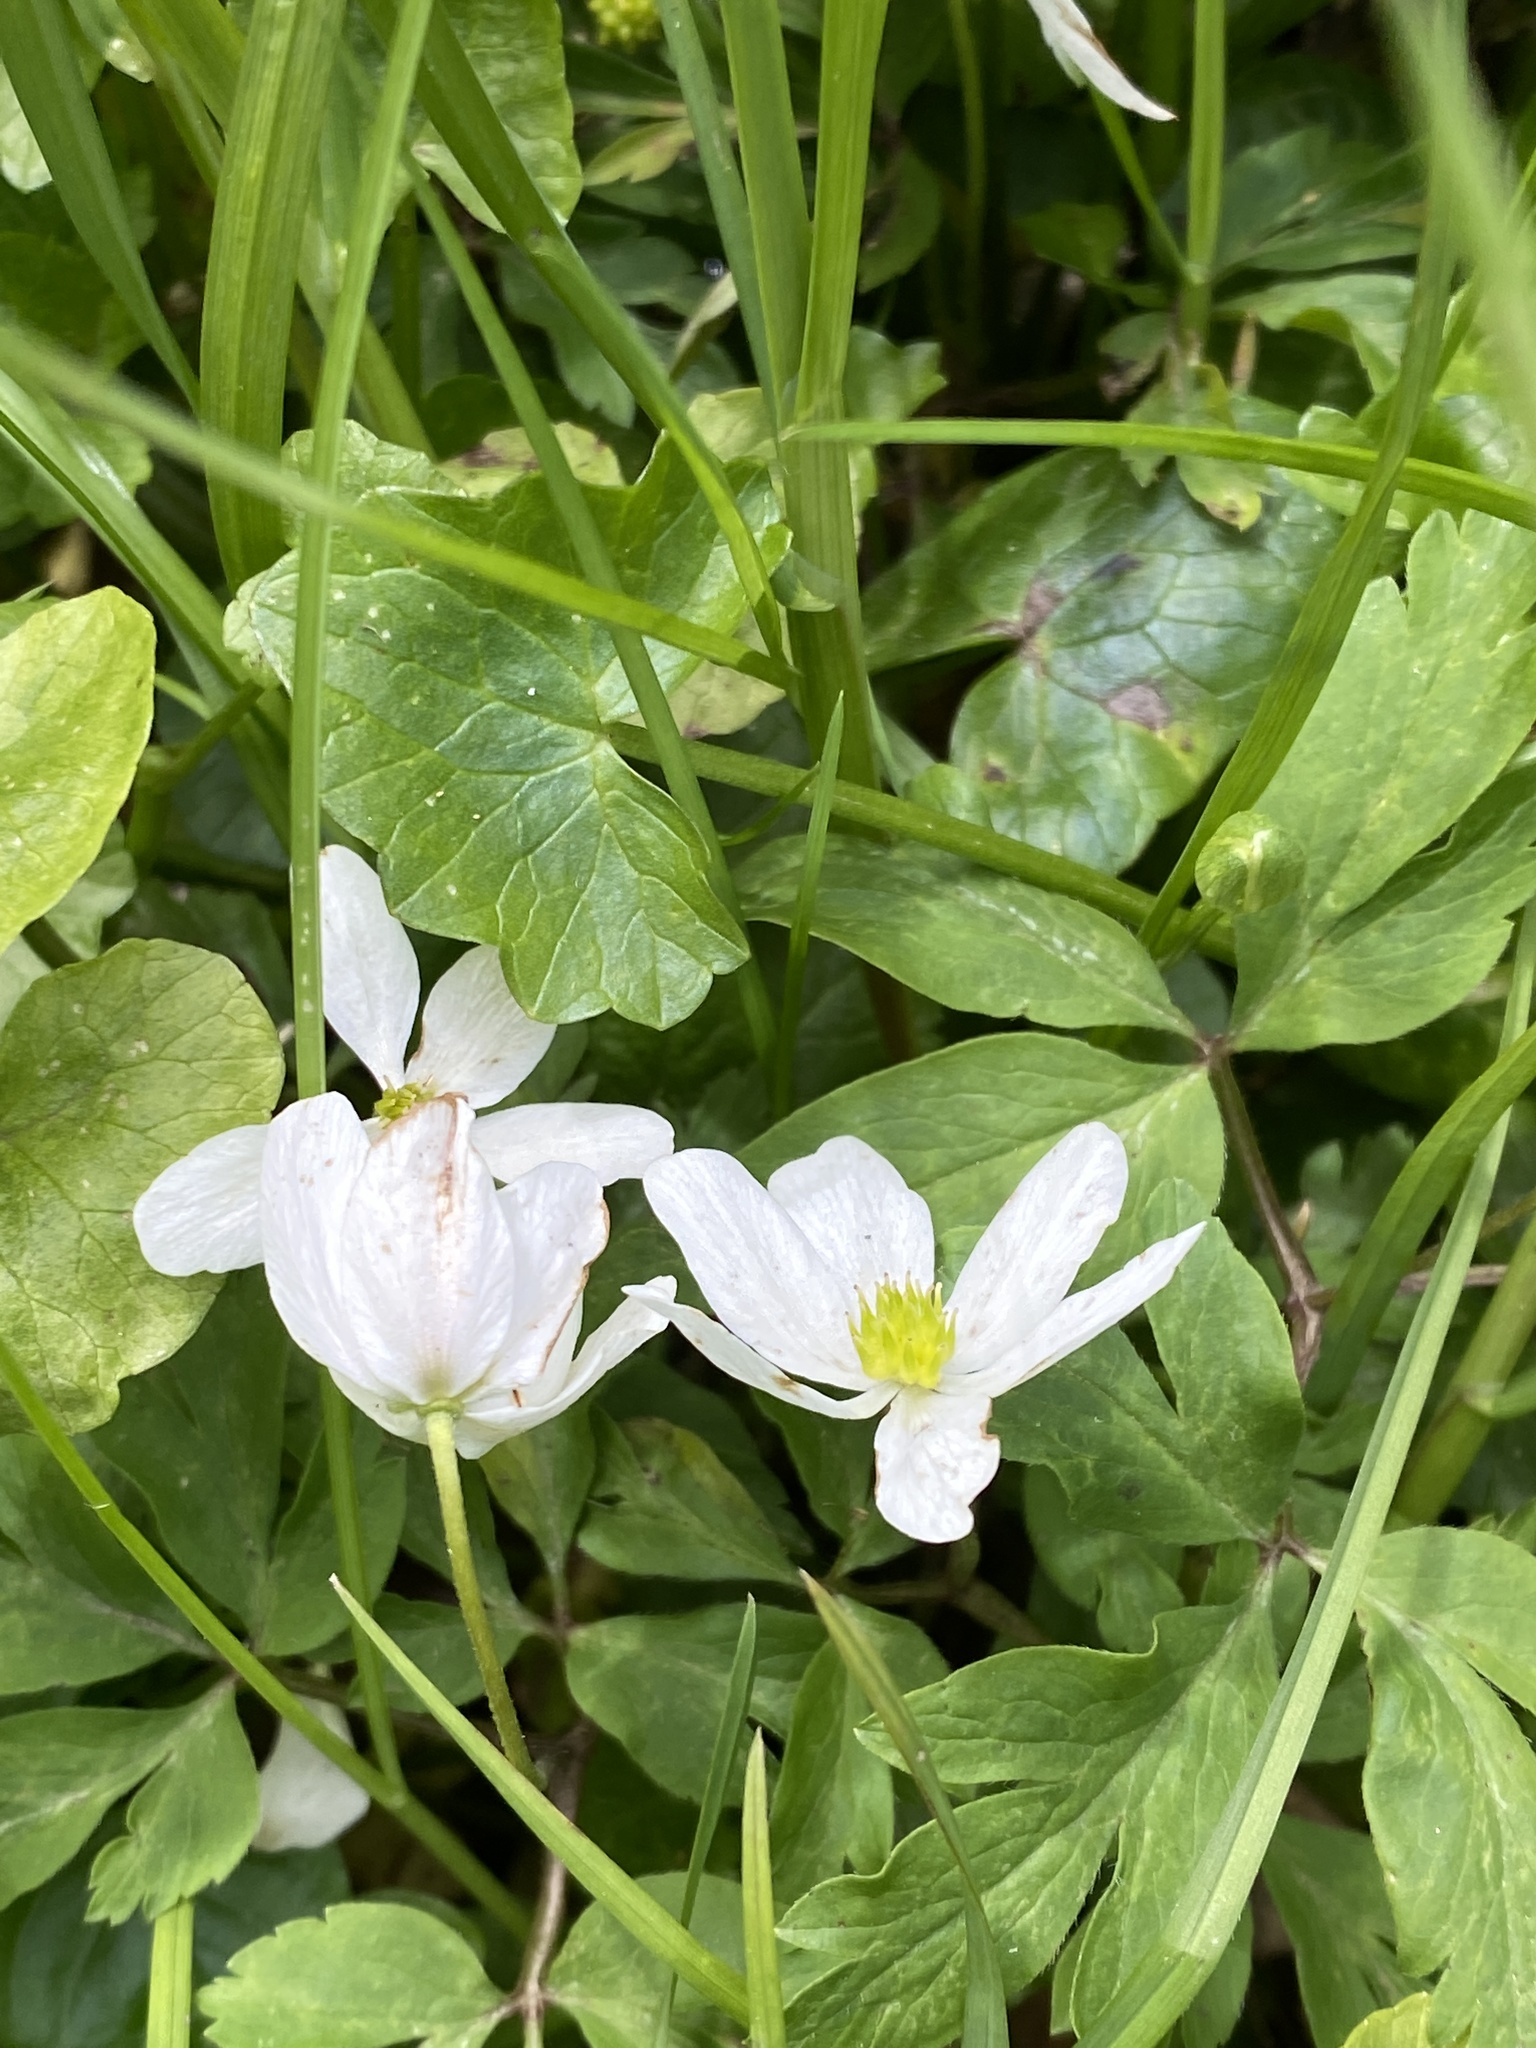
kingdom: Plantae
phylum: Tracheophyta
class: Magnoliopsida
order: Ranunculales
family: Ranunculaceae
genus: Anemone
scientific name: Anemone nemorosa
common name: Wood anemone
